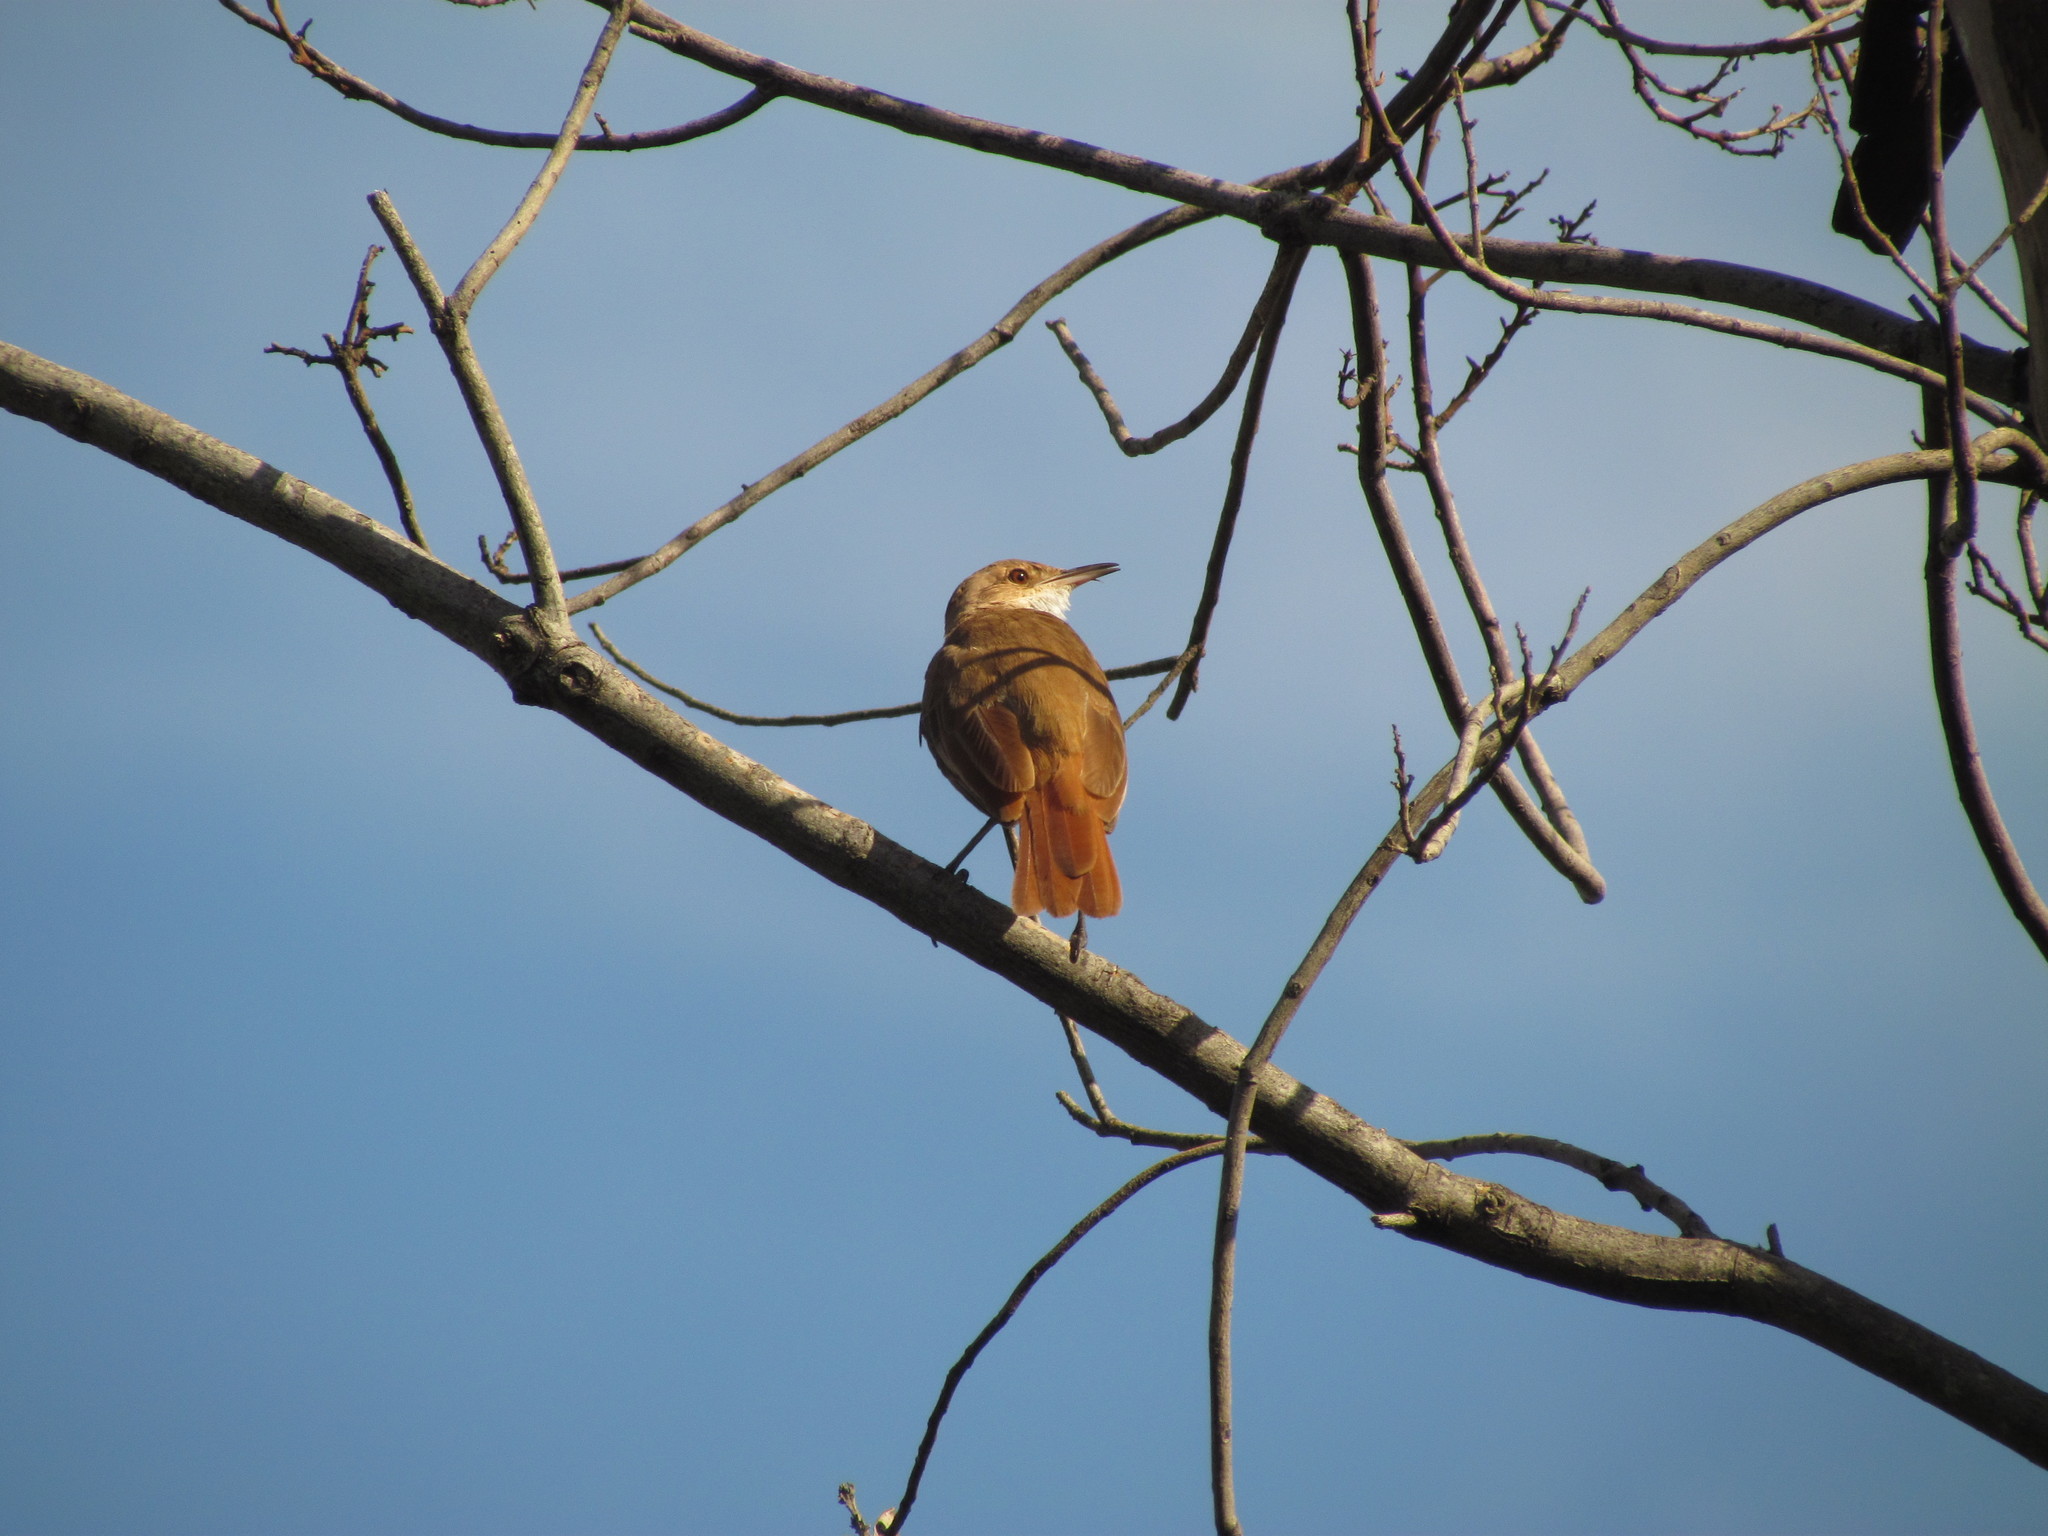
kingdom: Animalia
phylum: Chordata
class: Aves
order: Passeriformes
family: Furnariidae
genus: Furnarius
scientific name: Furnarius rufus
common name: Rufous hornero
